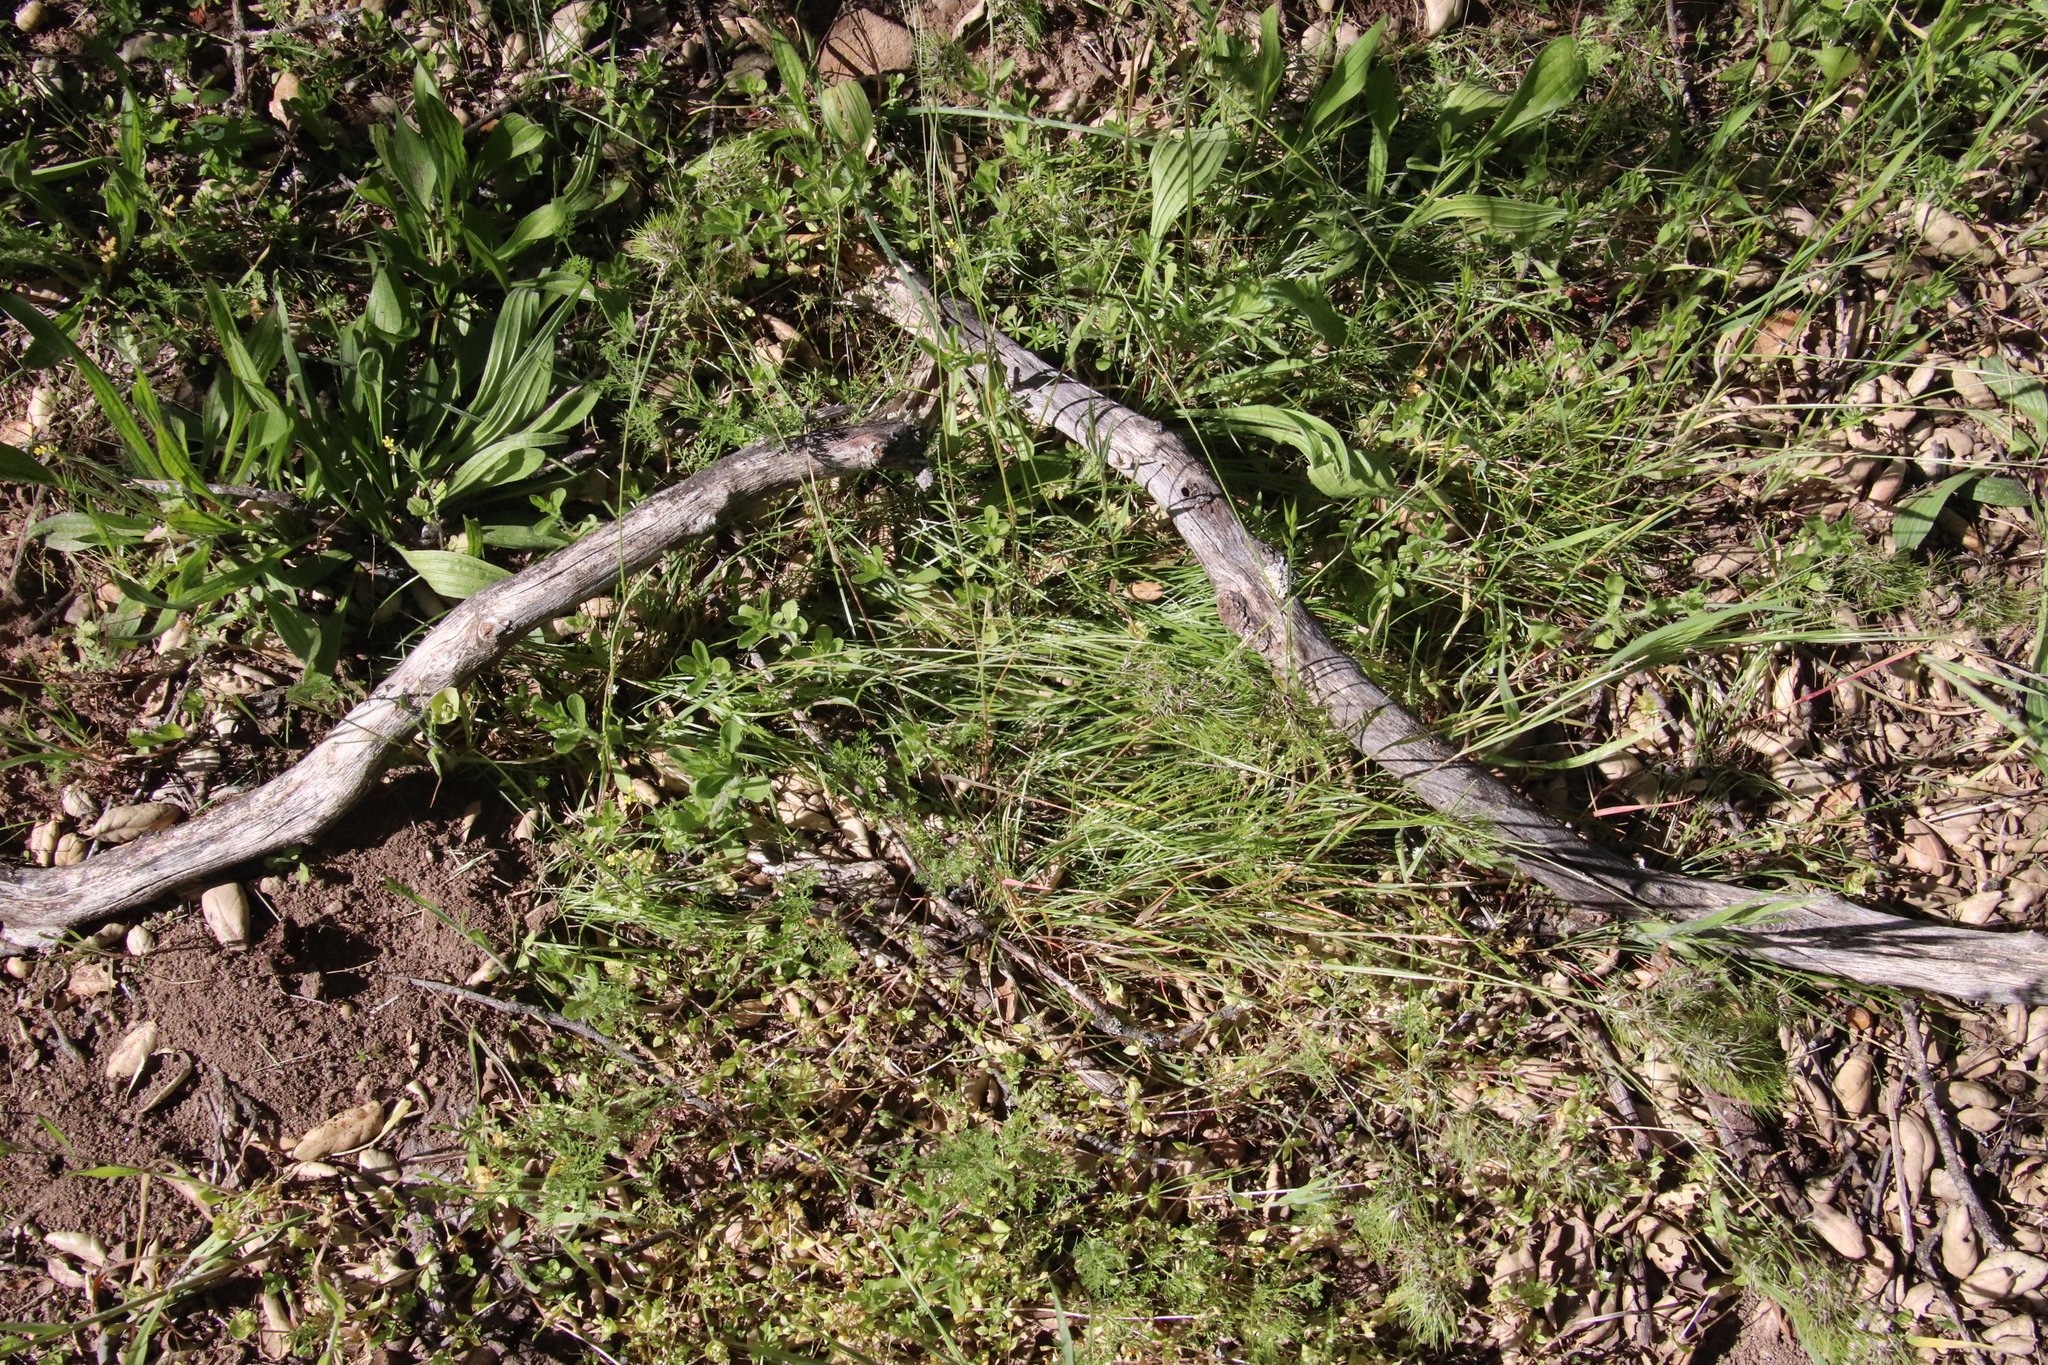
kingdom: Plantae
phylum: Tracheophyta
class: Liliopsida
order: Poales
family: Poaceae
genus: Poa
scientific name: Poa bulbosa
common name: Bulbous bluegrass
